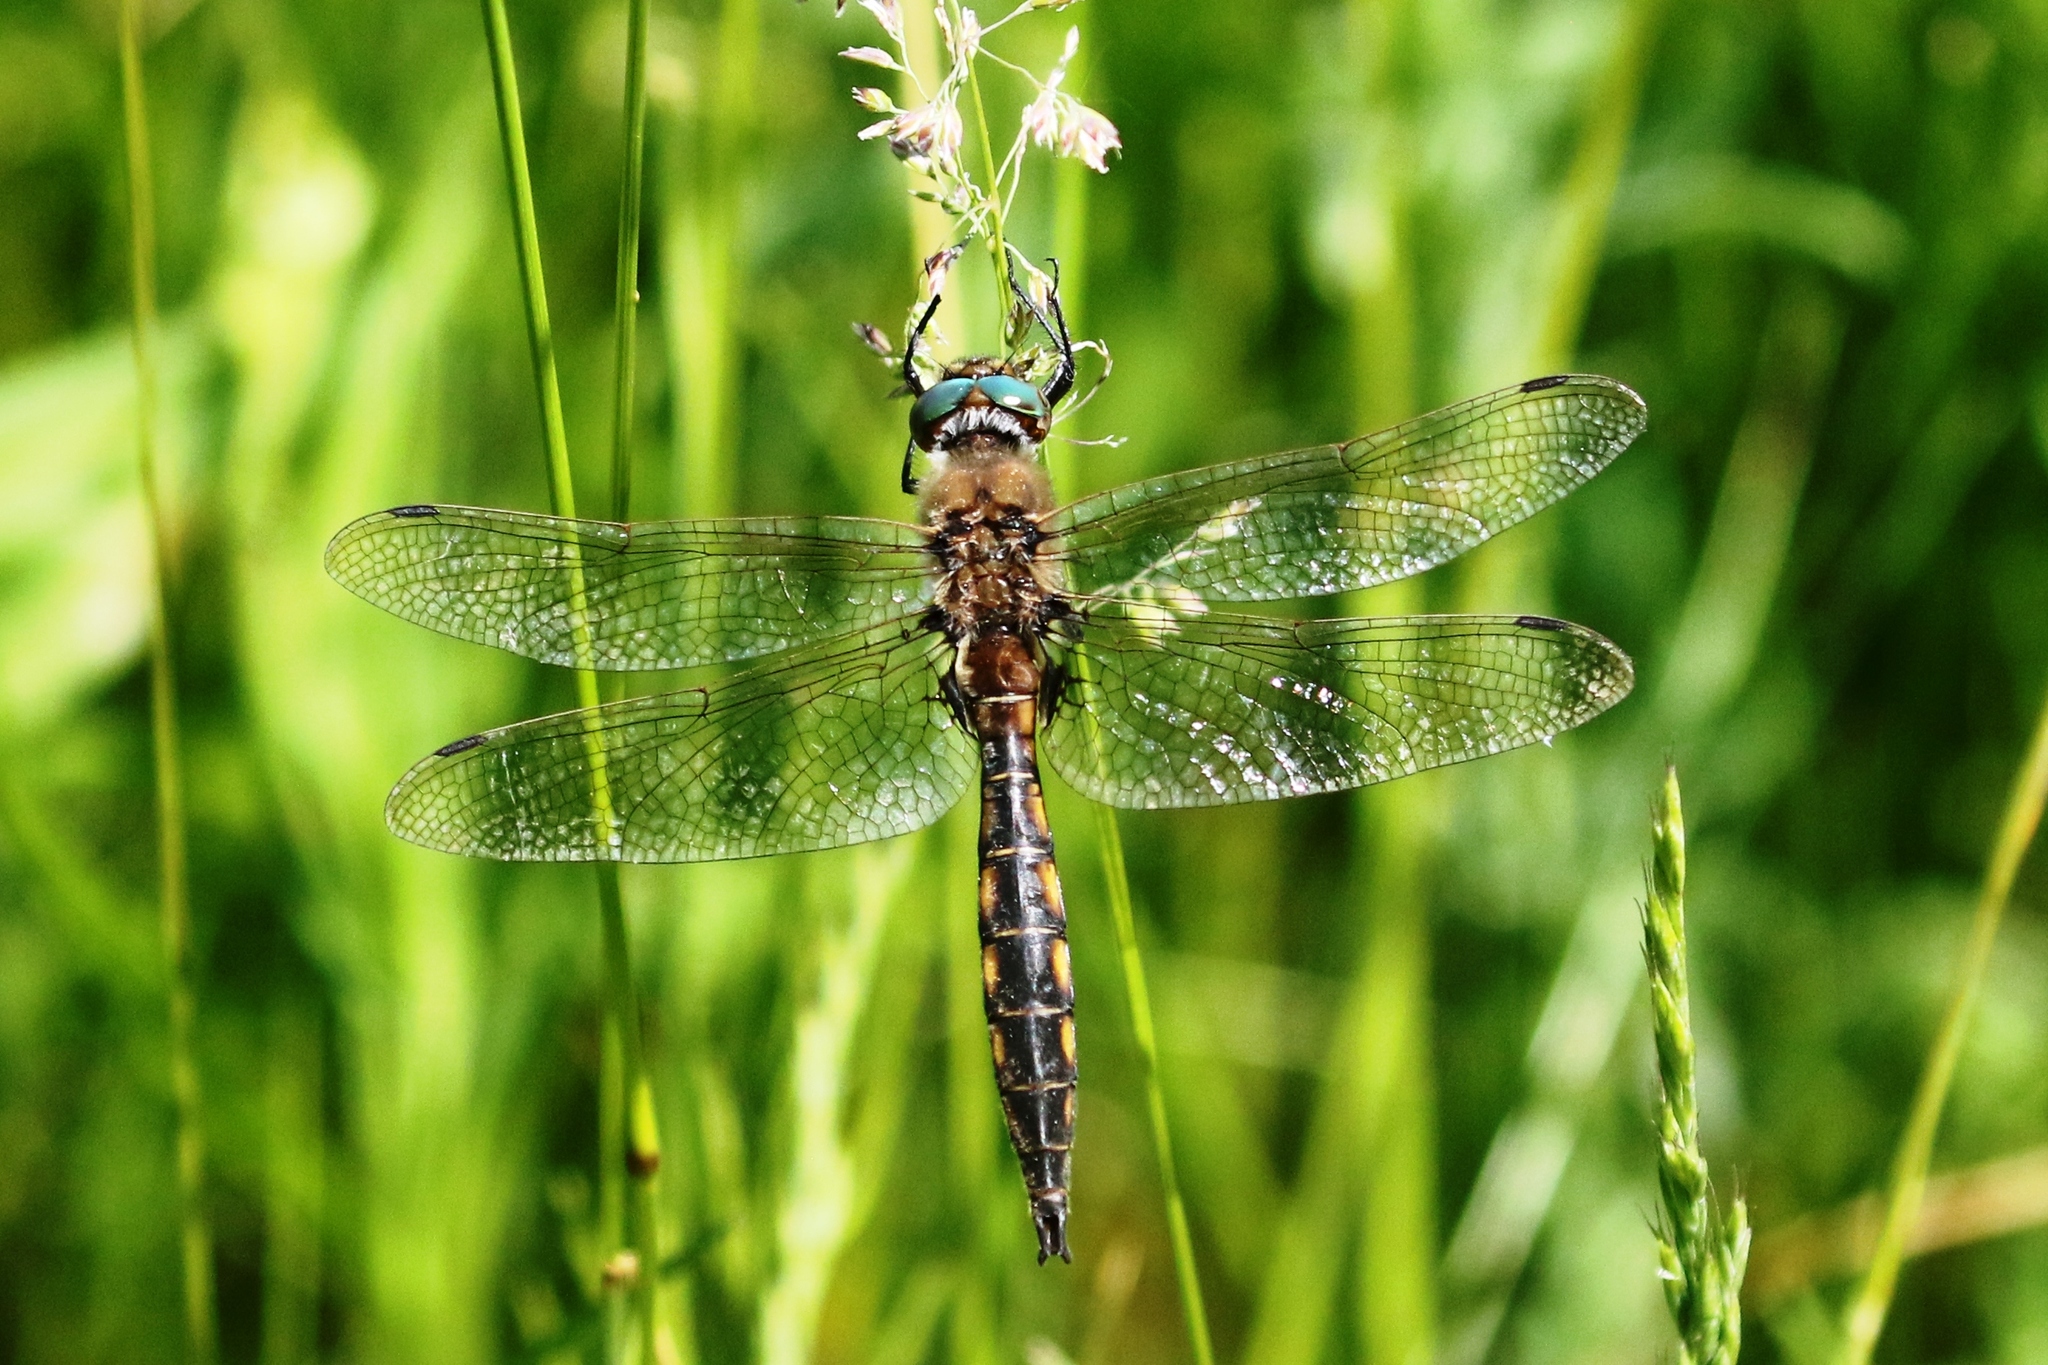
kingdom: Animalia
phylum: Arthropoda
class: Insecta
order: Odonata
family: Corduliidae
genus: Epitheca
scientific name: Epitheca canis
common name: Beaverpond baskettail
